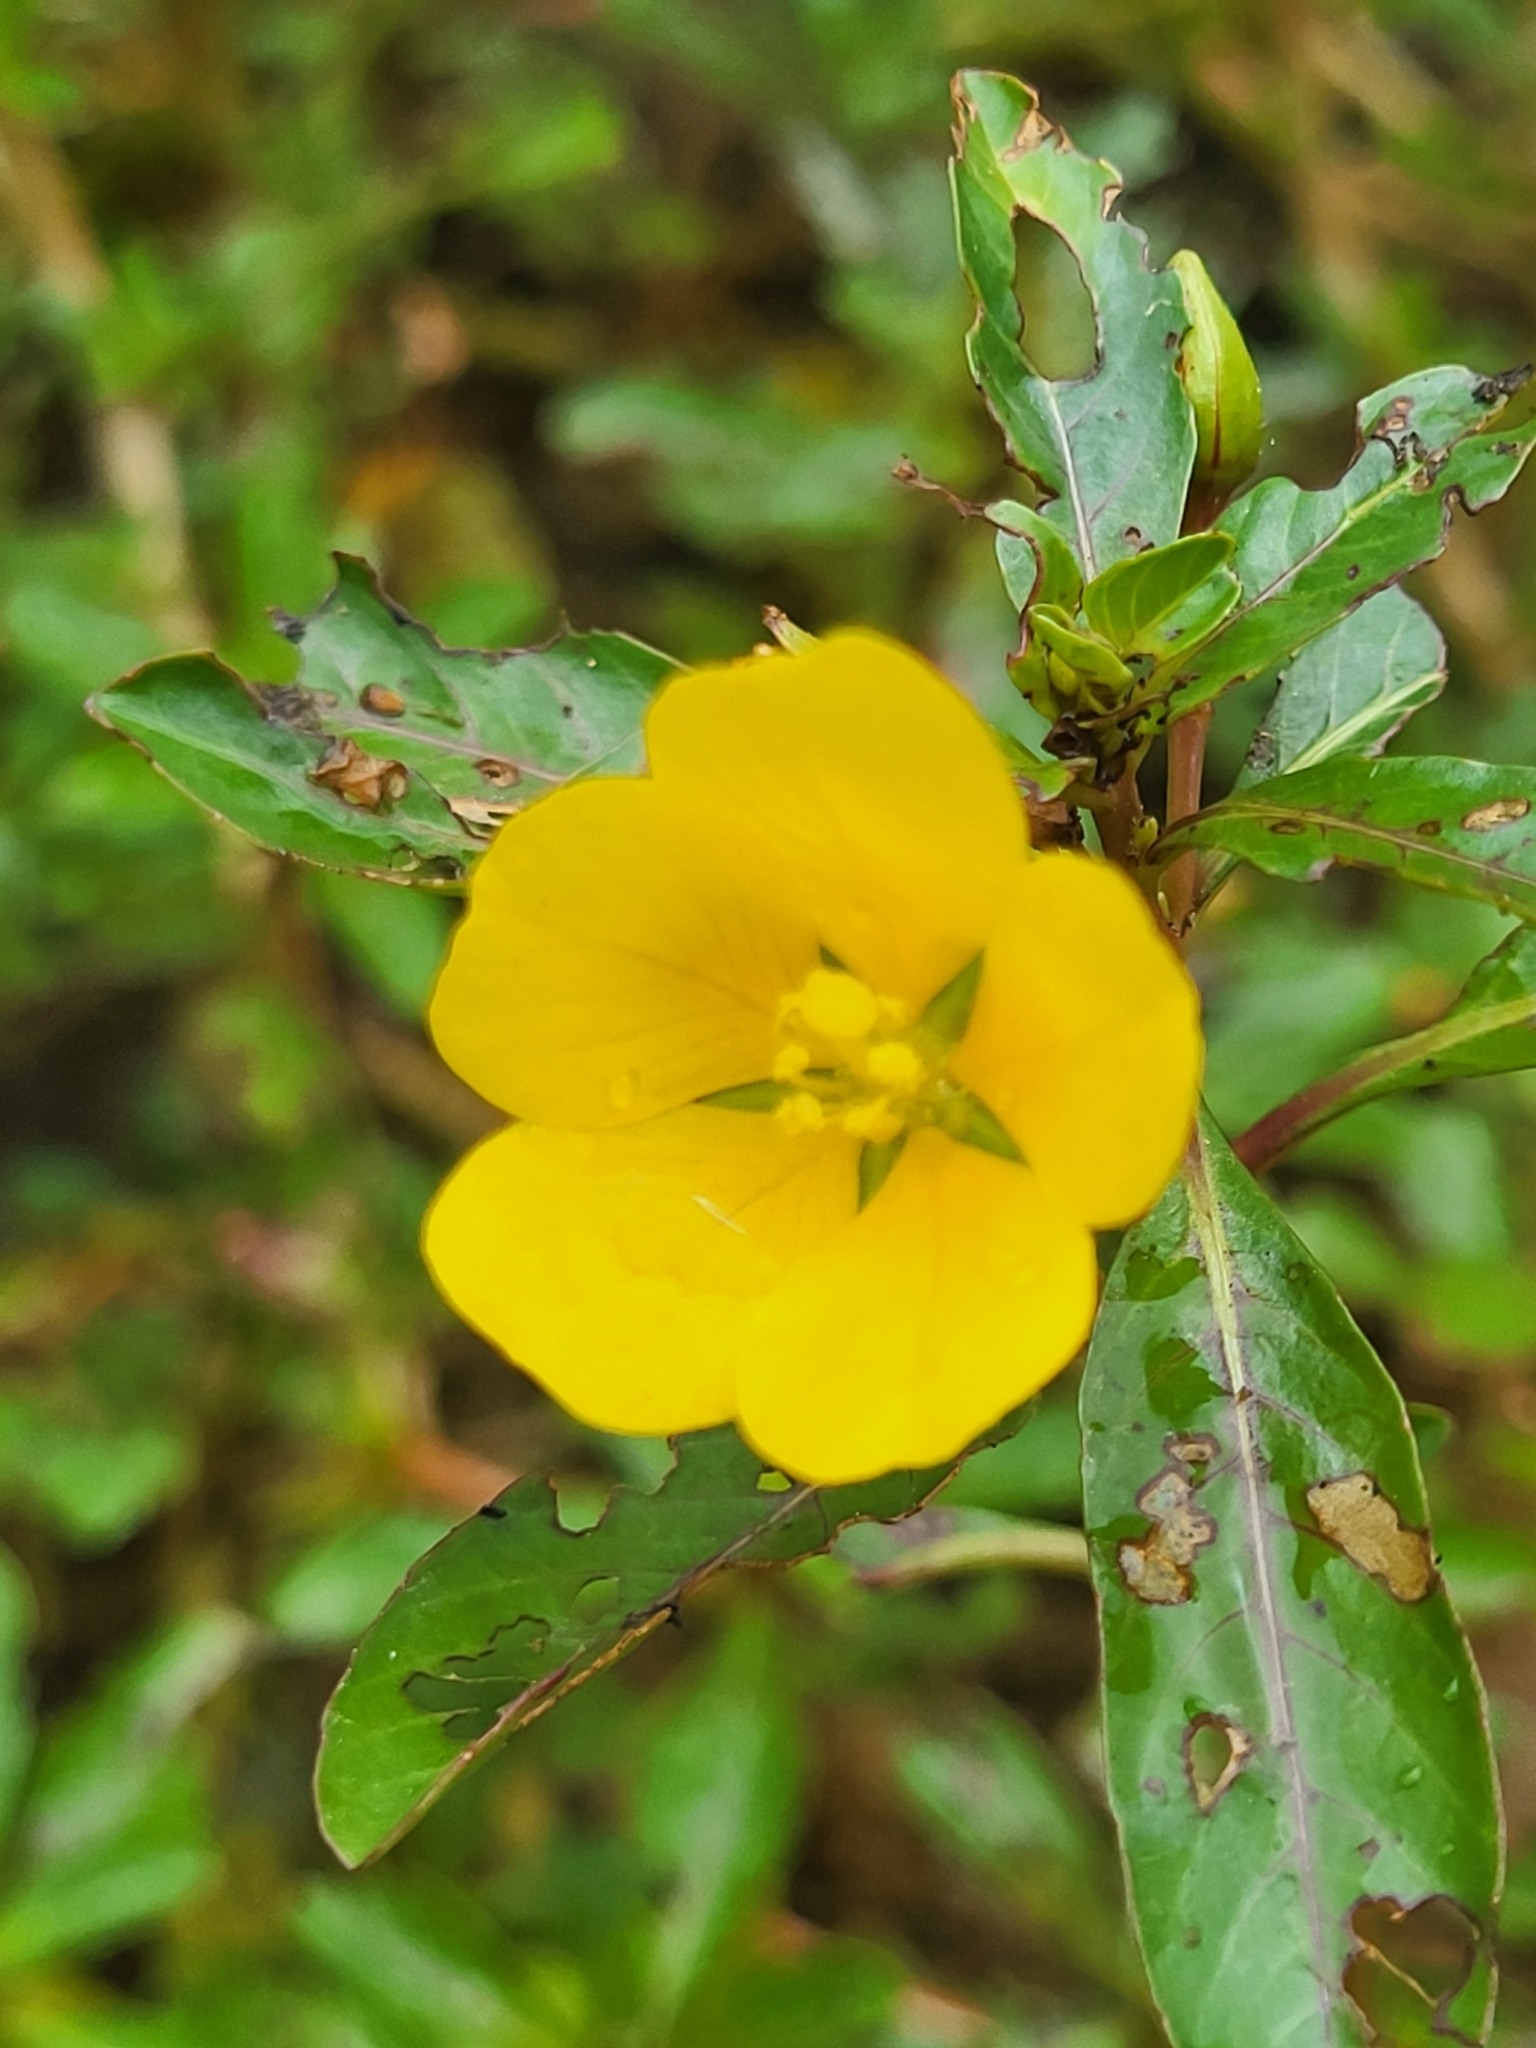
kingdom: Plantae
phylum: Tracheophyta
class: Magnoliopsida
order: Myrtales
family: Onagraceae
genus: Ludwigia
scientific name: Ludwigia peploides
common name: Floating primrose-willow
